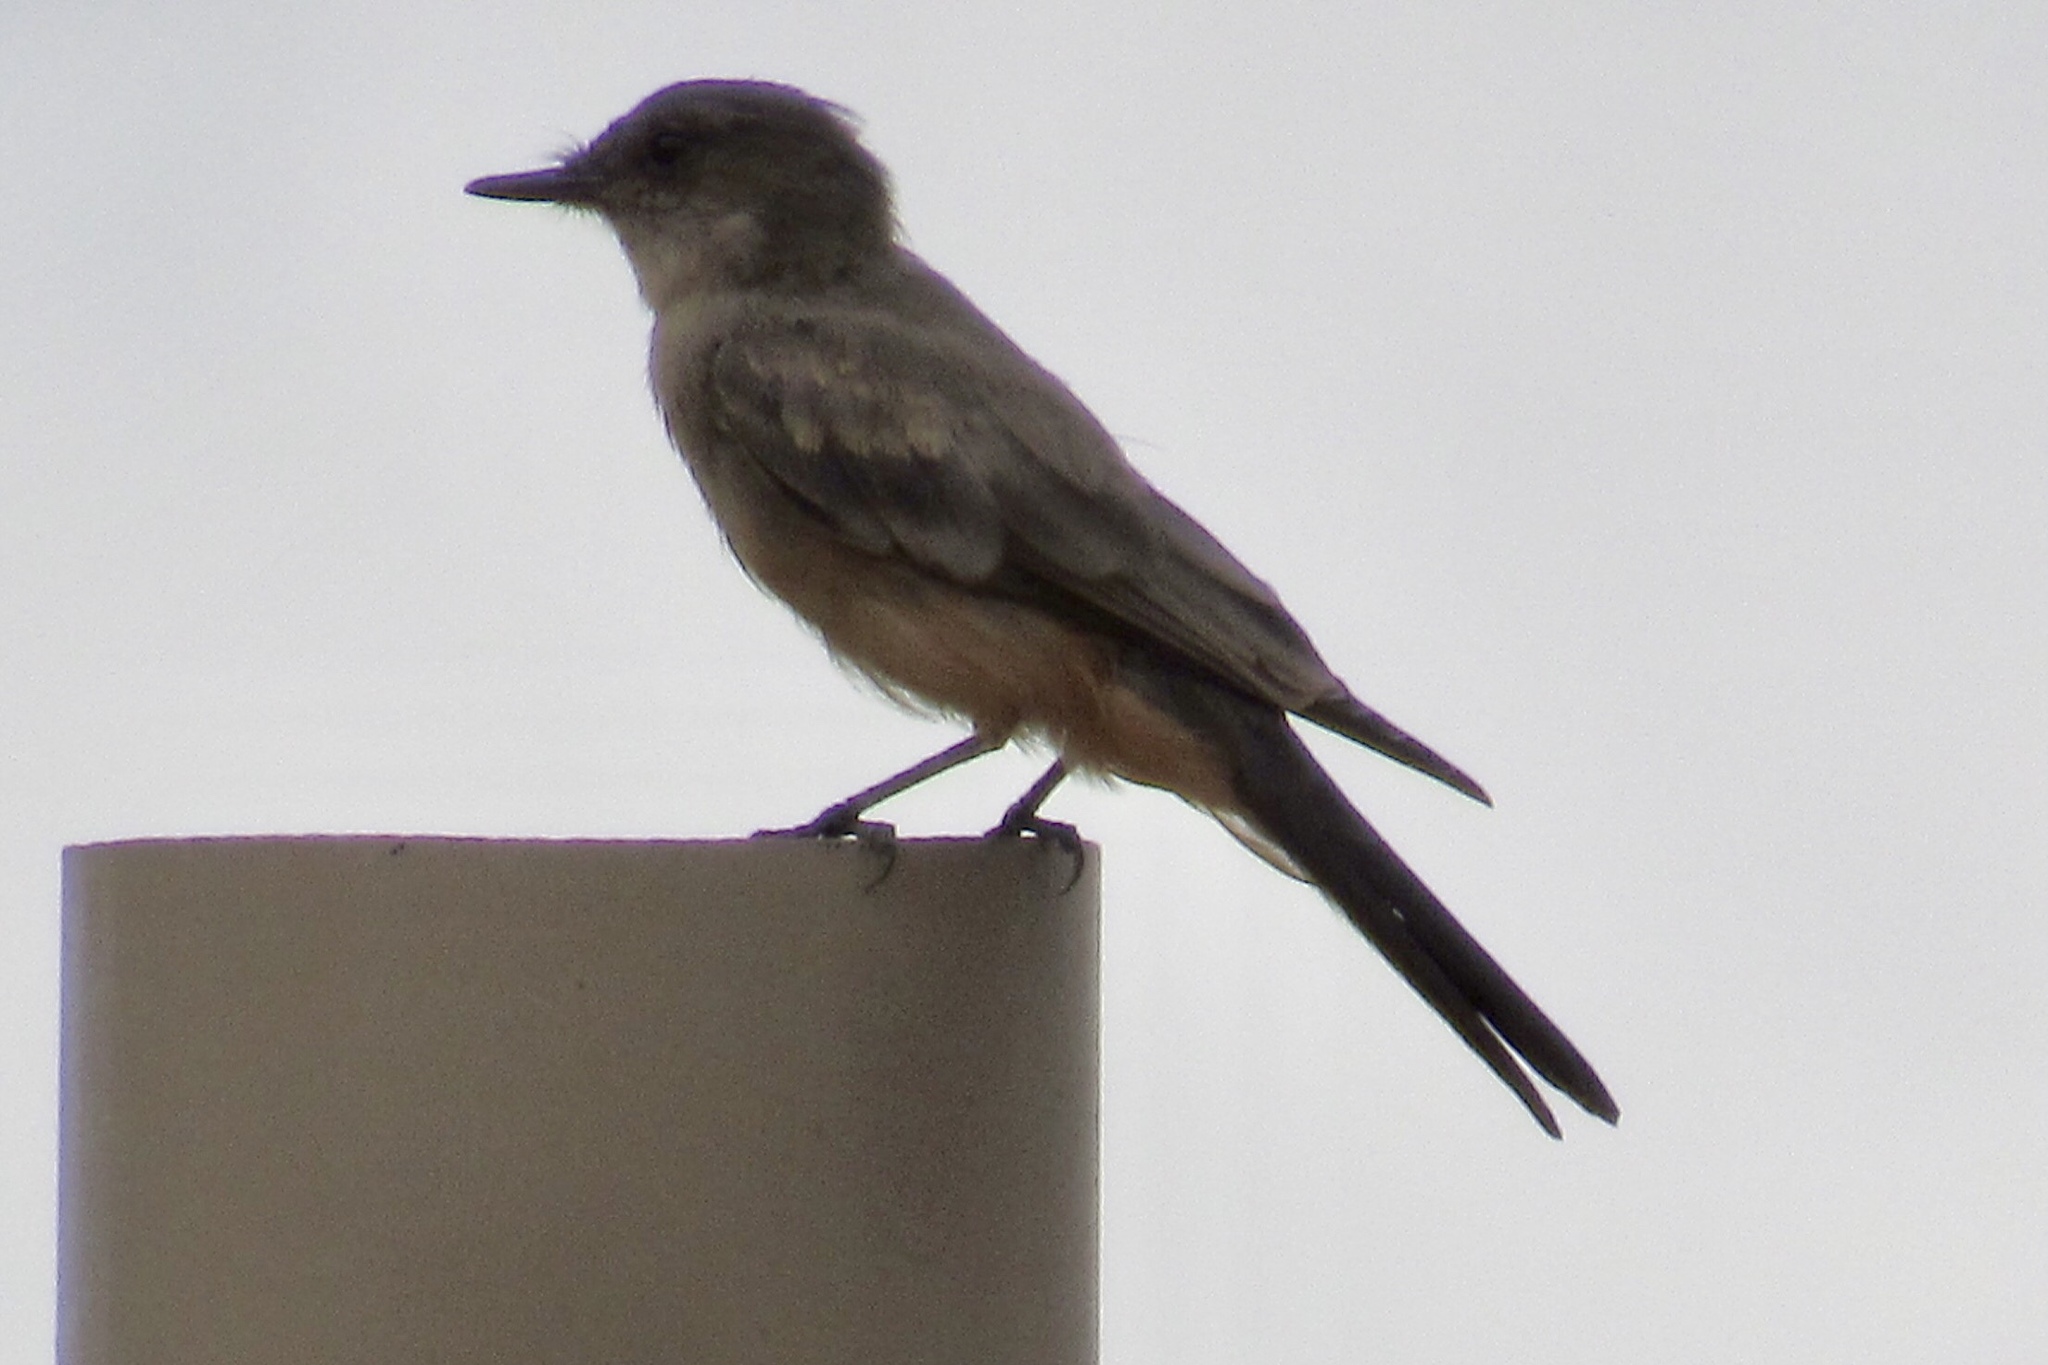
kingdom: Animalia
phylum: Chordata
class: Aves
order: Passeriformes
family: Tyrannidae
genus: Sayornis
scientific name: Sayornis saya
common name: Say's phoebe
